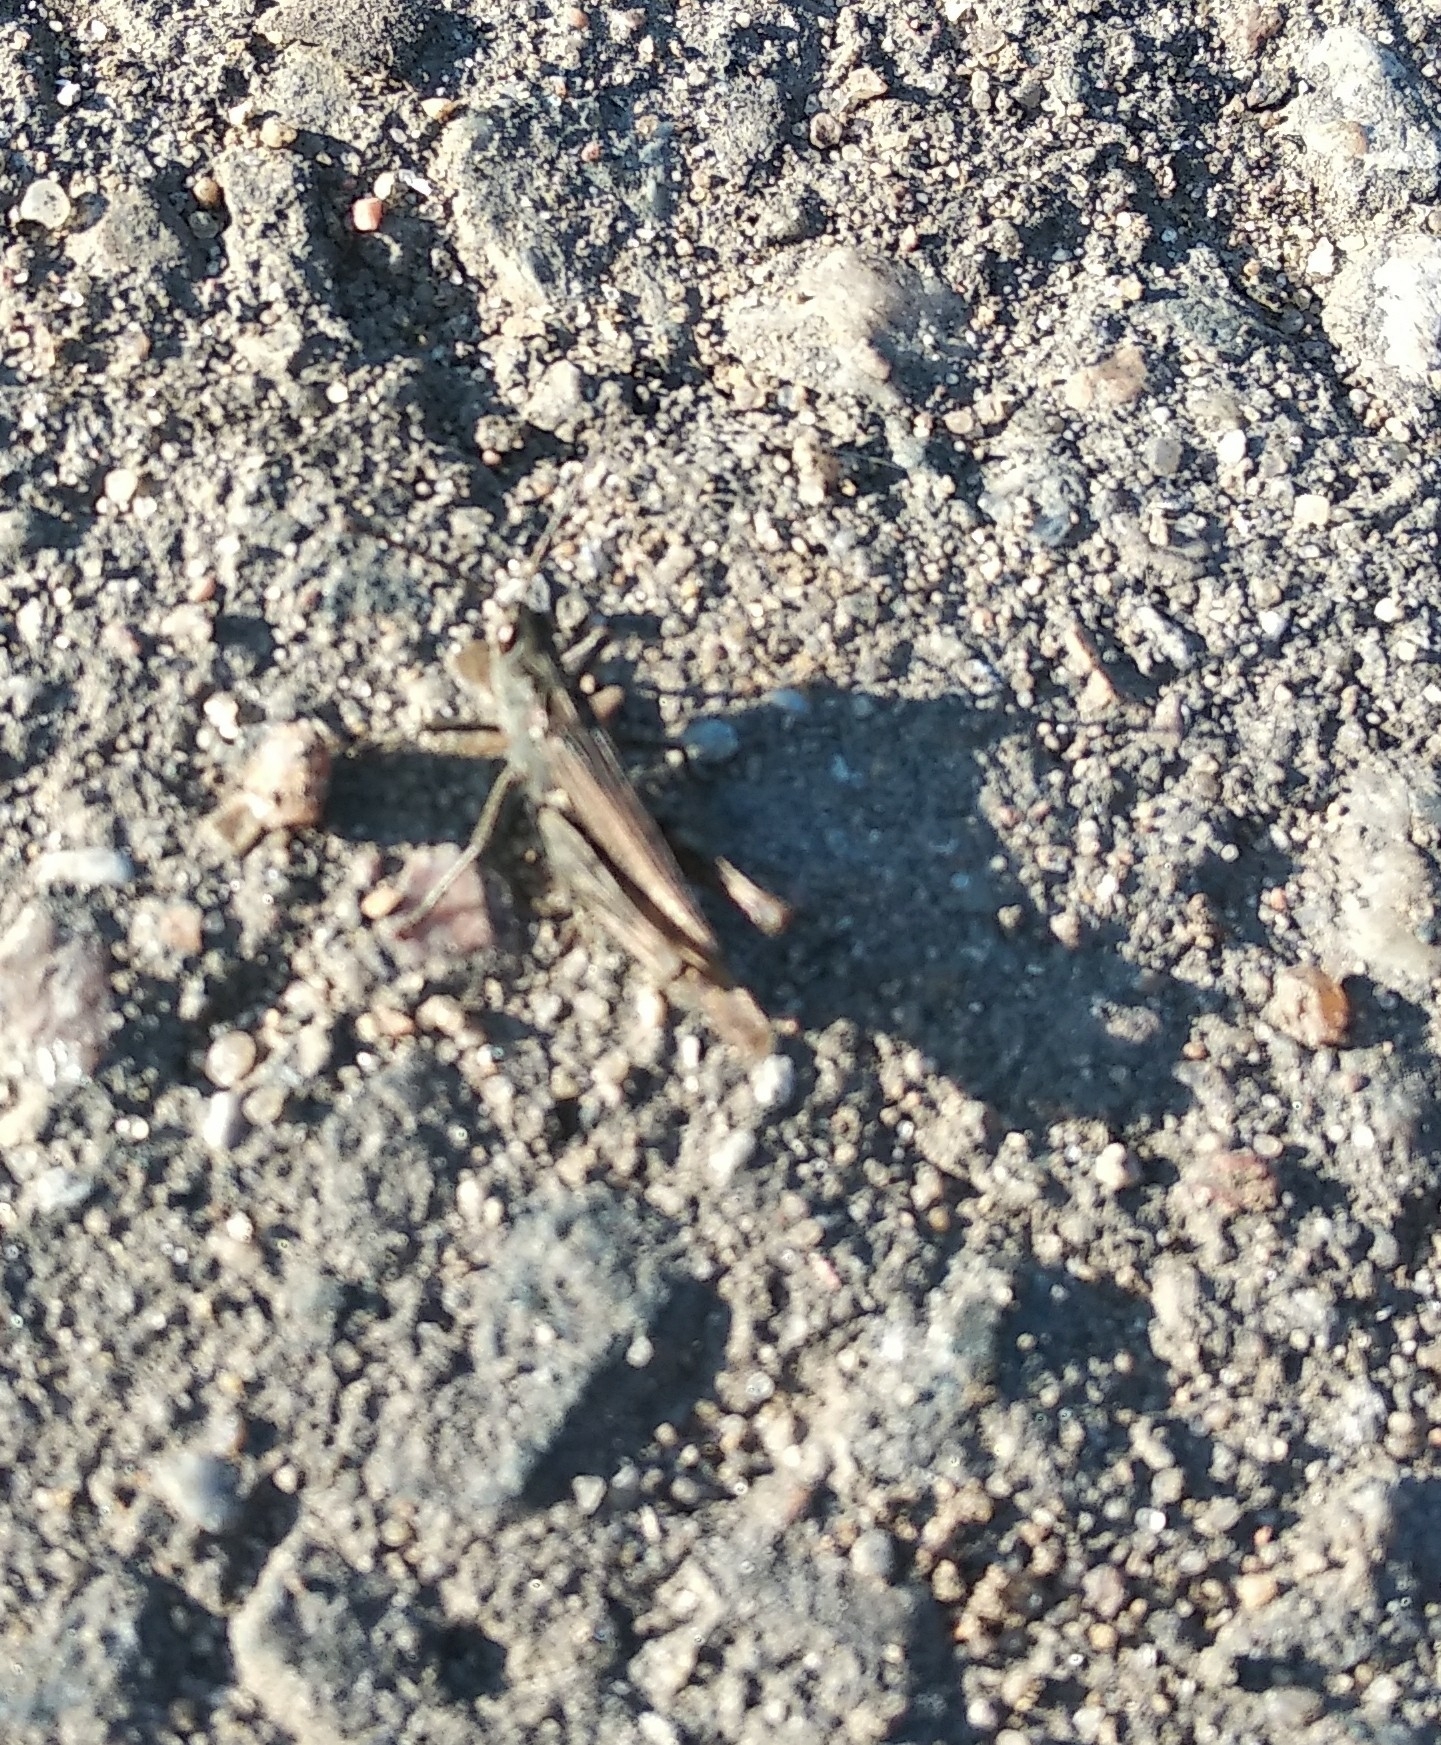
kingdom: Animalia
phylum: Arthropoda
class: Insecta
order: Orthoptera
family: Acrididae
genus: Chorthippus
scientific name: Chorthippus apricarius
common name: Upland field grasshopper
